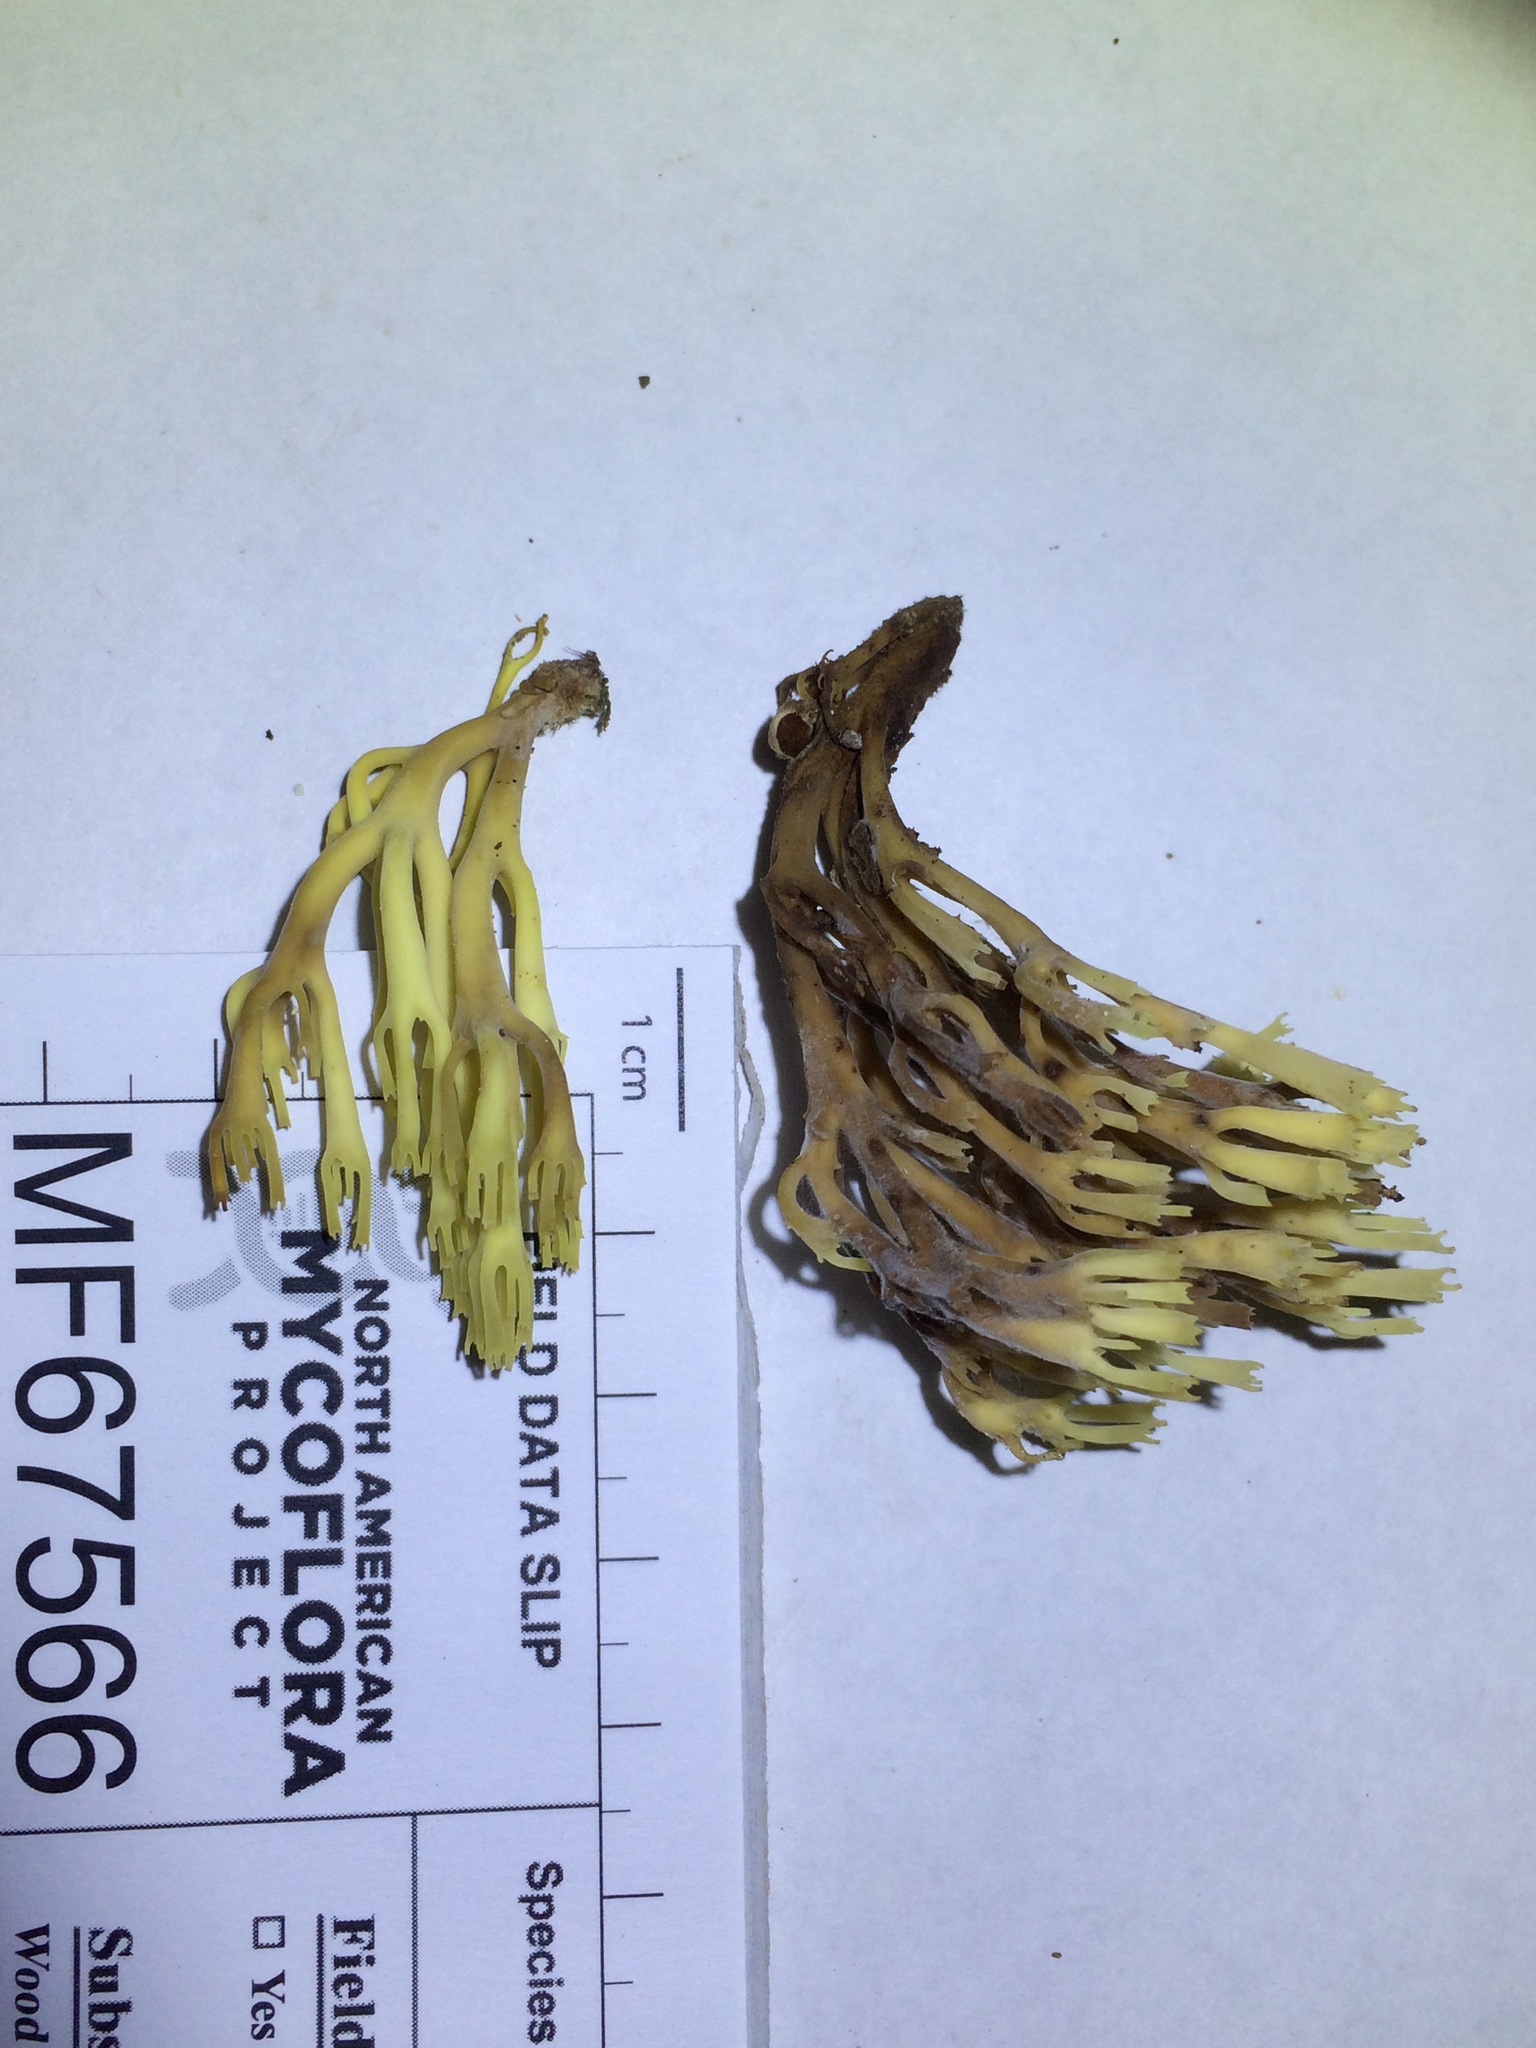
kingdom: Fungi
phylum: Basidiomycota
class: Agaricomycetes
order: Russulales
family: Auriscalpiaceae
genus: Artomyces
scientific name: Artomyces pyxidatus
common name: Crown-tipped coral fungus
